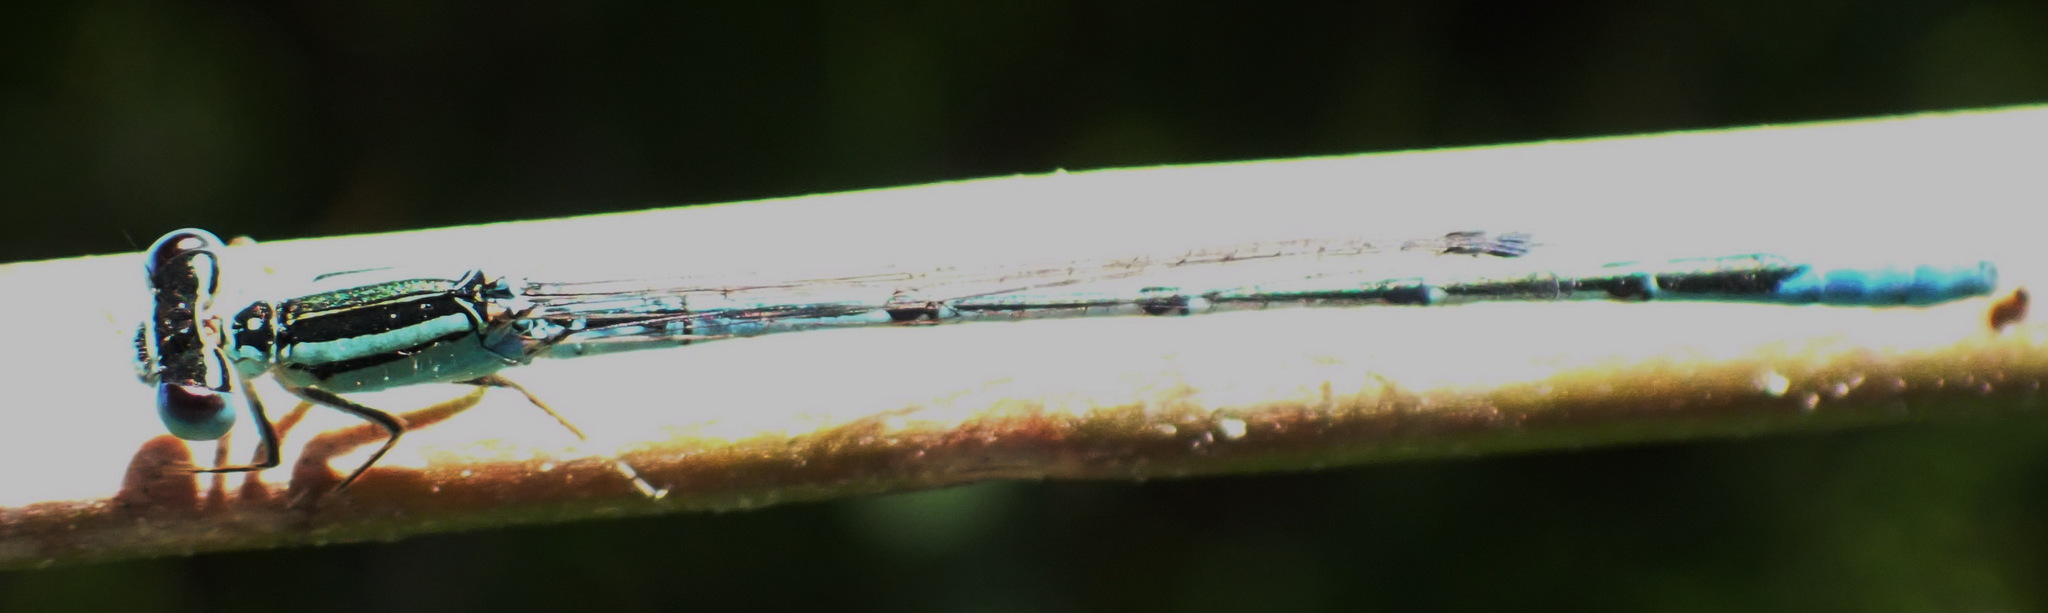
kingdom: Animalia
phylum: Arthropoda
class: Insecta
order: Odonata
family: Coenagrionidae
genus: Africallagma
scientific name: Africallagma glaucum
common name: Swamp bluet
